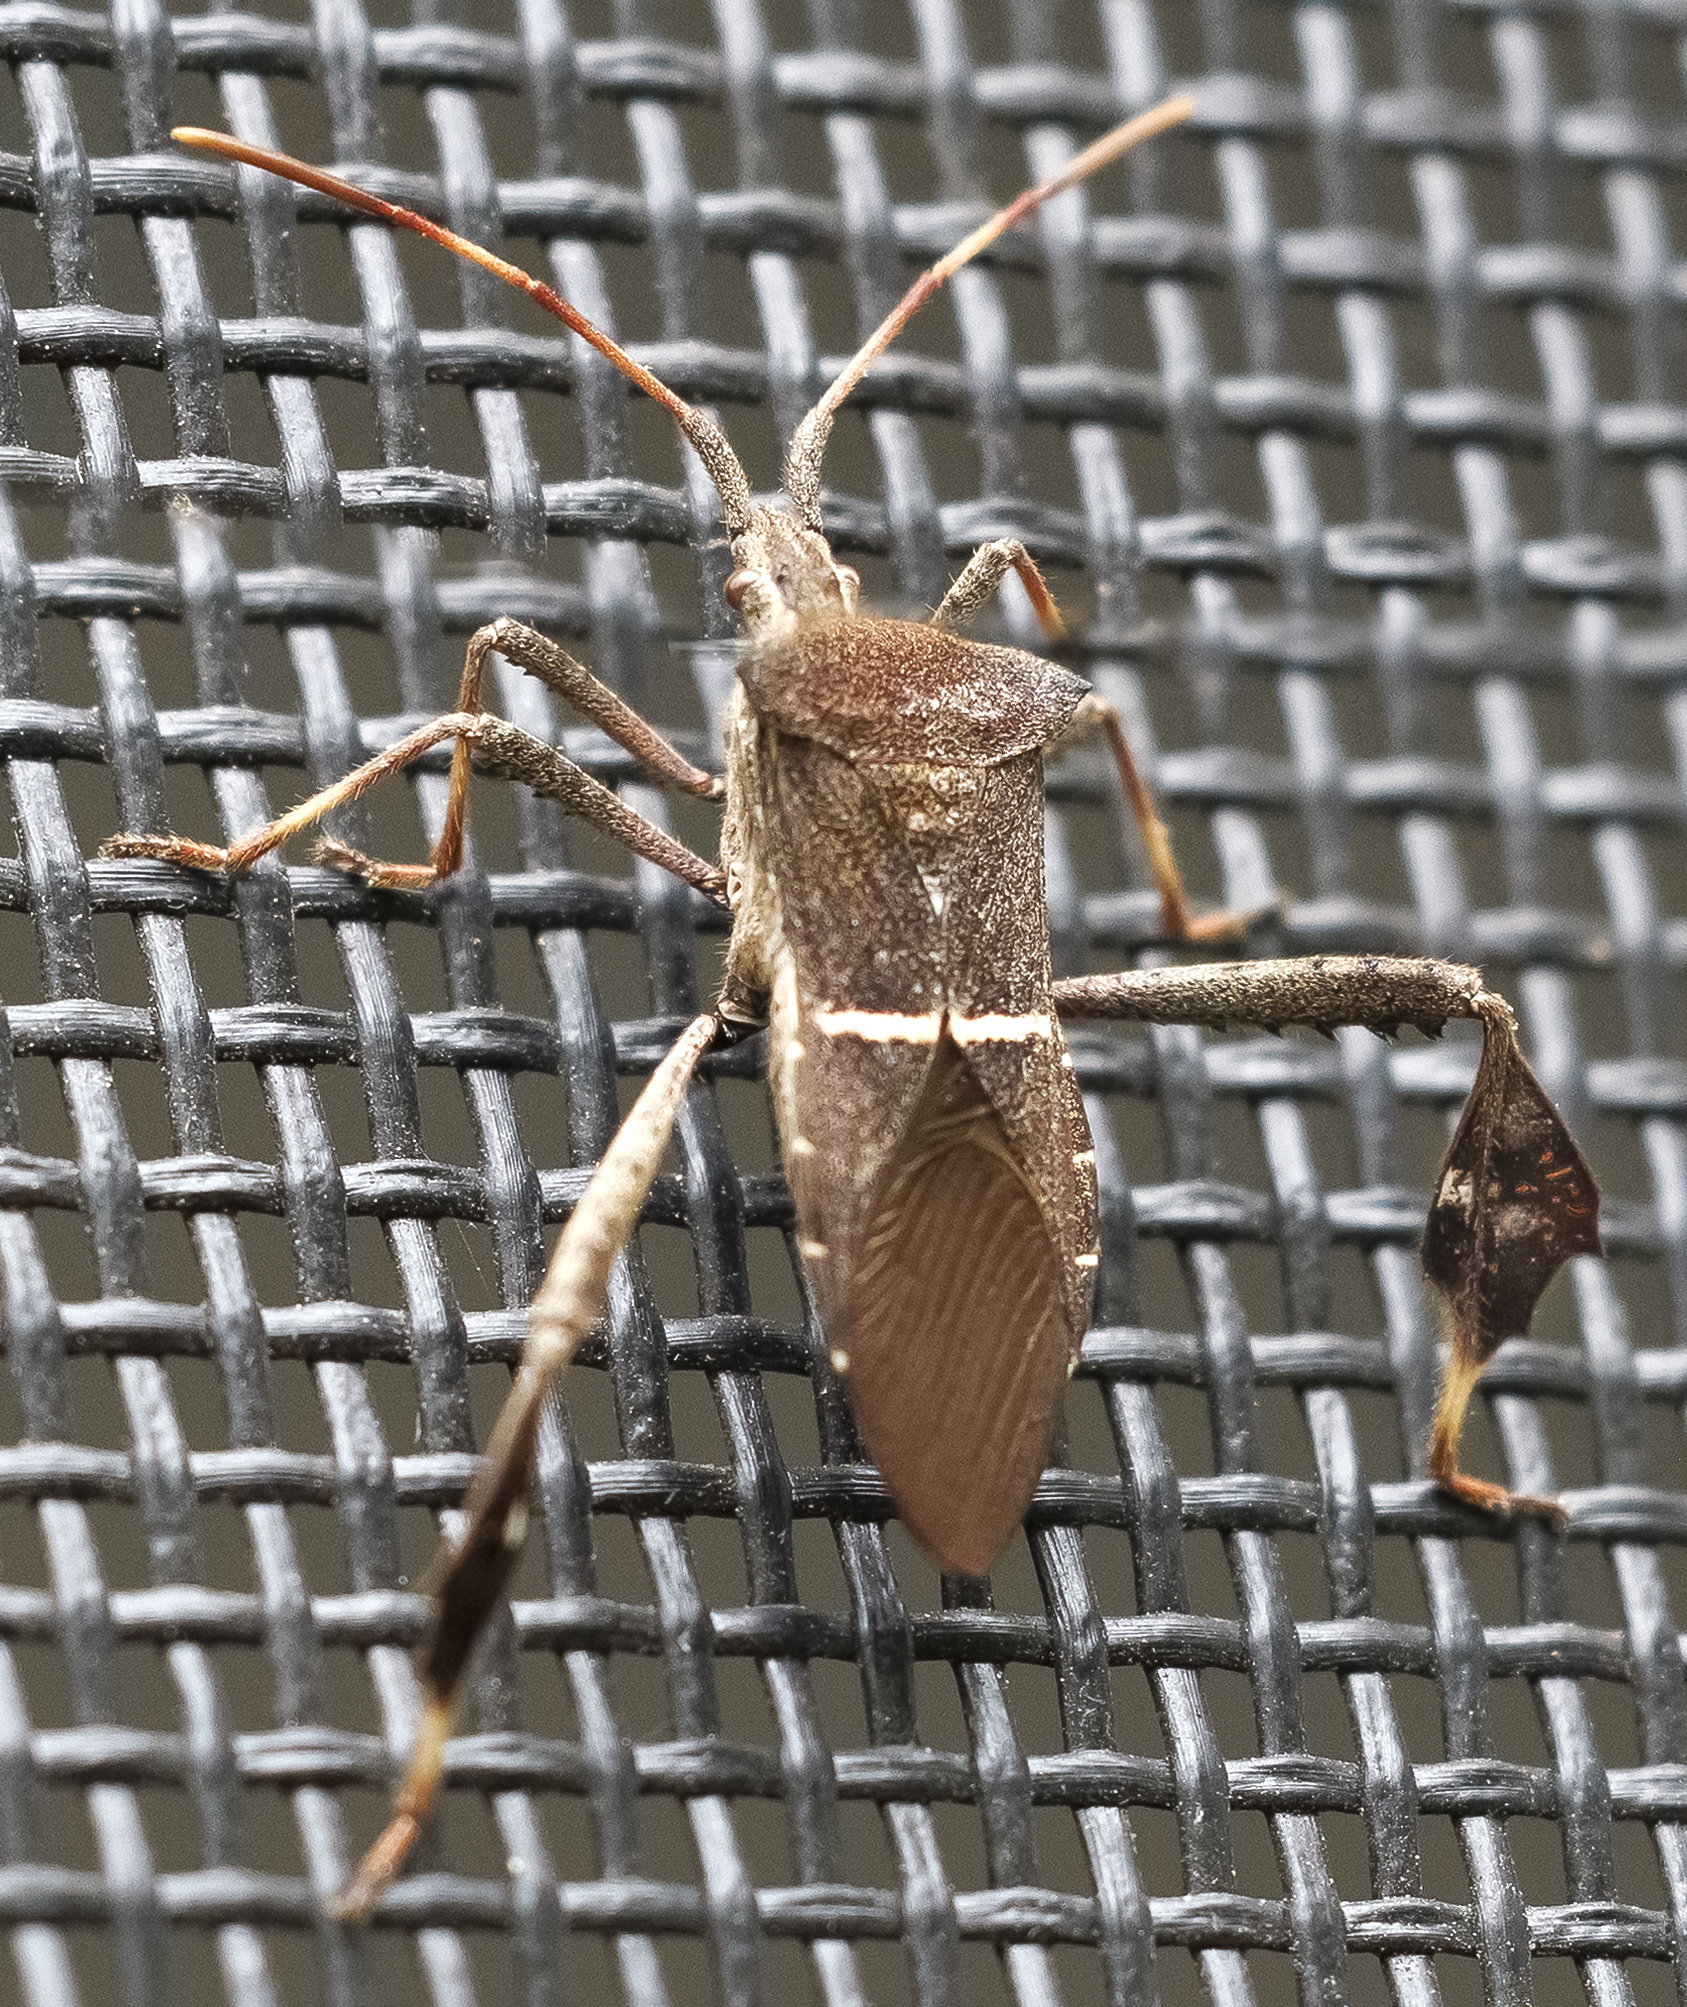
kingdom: Animalia
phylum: Arthropoda
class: Insecta
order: Hemiptera
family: Coreidae
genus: Leptoglossus
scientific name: Leptoglossus phyllopus
